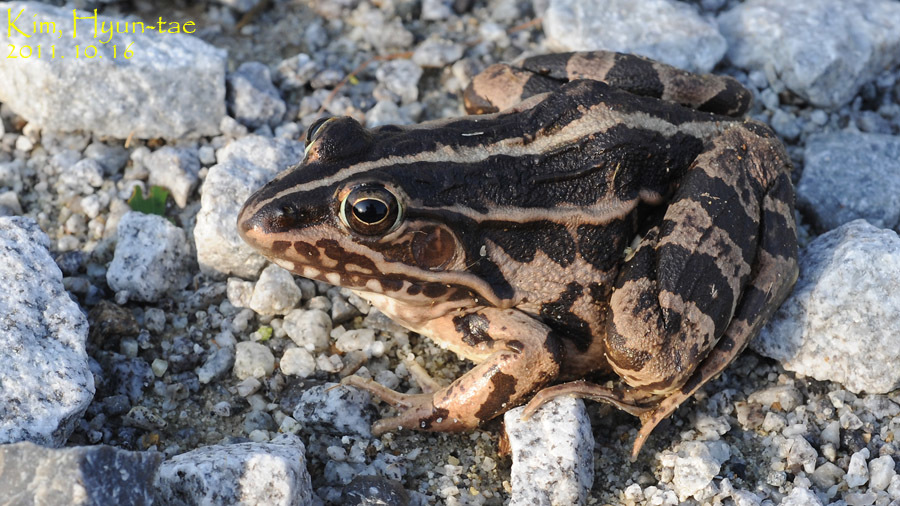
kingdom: Animalia
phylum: Chordata
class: Amphibia
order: Anura
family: Ranidae
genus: Pelophylax
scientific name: Pelophylax nigromaculatus
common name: Black-spotted pond frog
